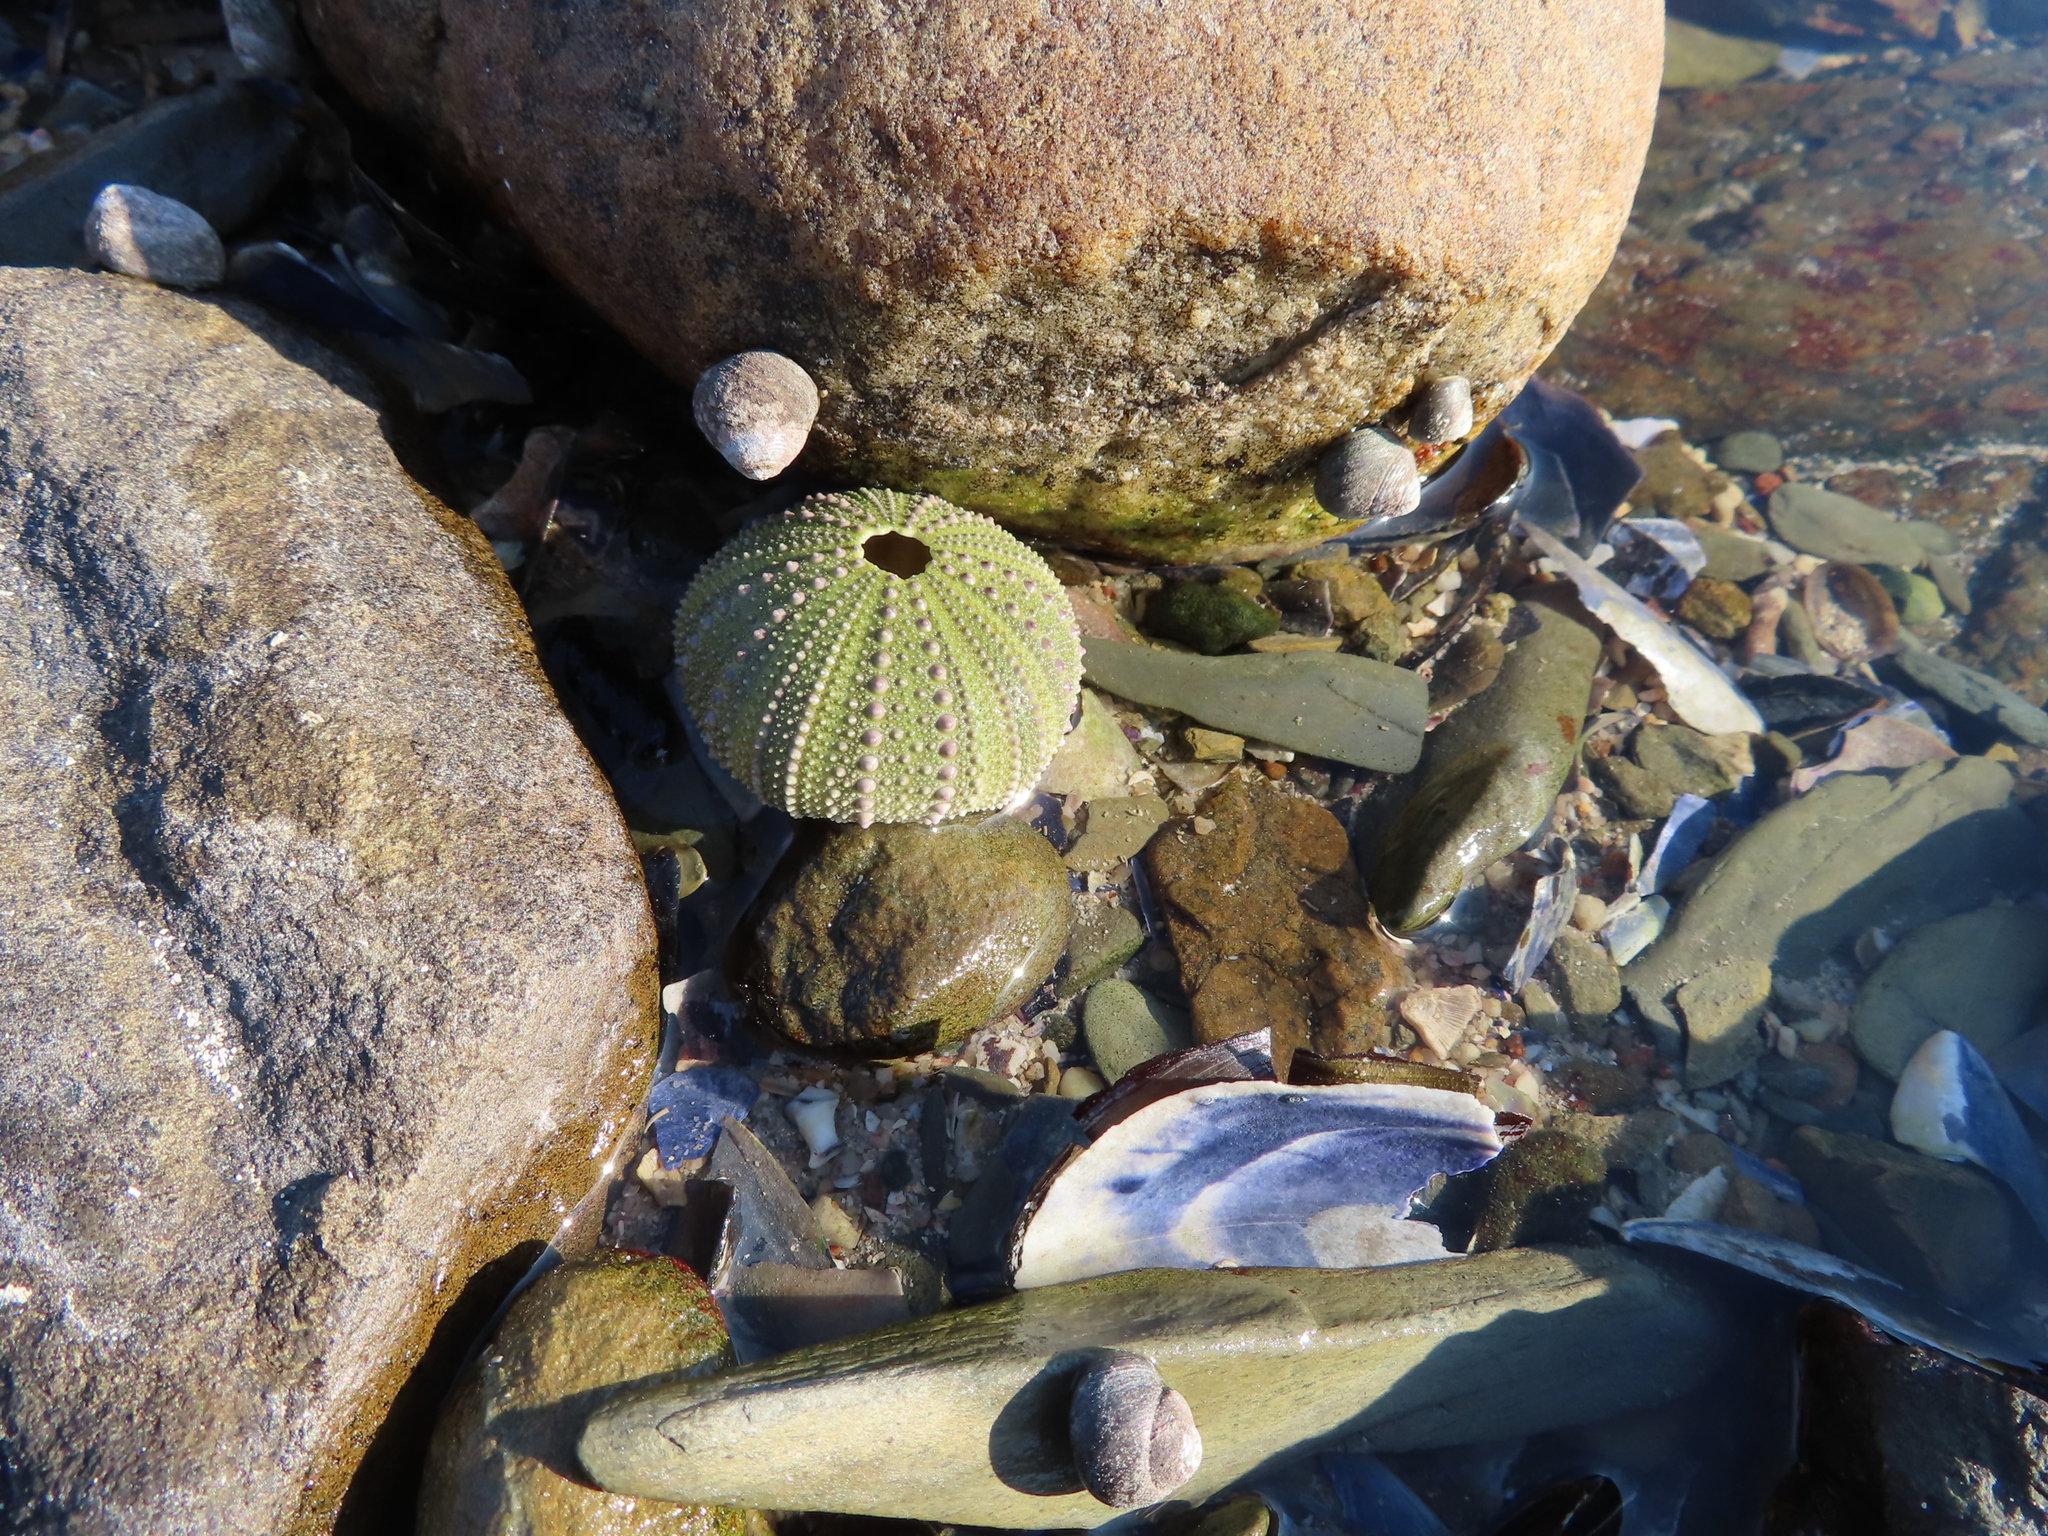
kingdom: Animalia
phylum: Echinodermata
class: Echinoidea
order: Camarodonta
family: Parechinidae
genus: Parechinus
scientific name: Parechinus angulosus
